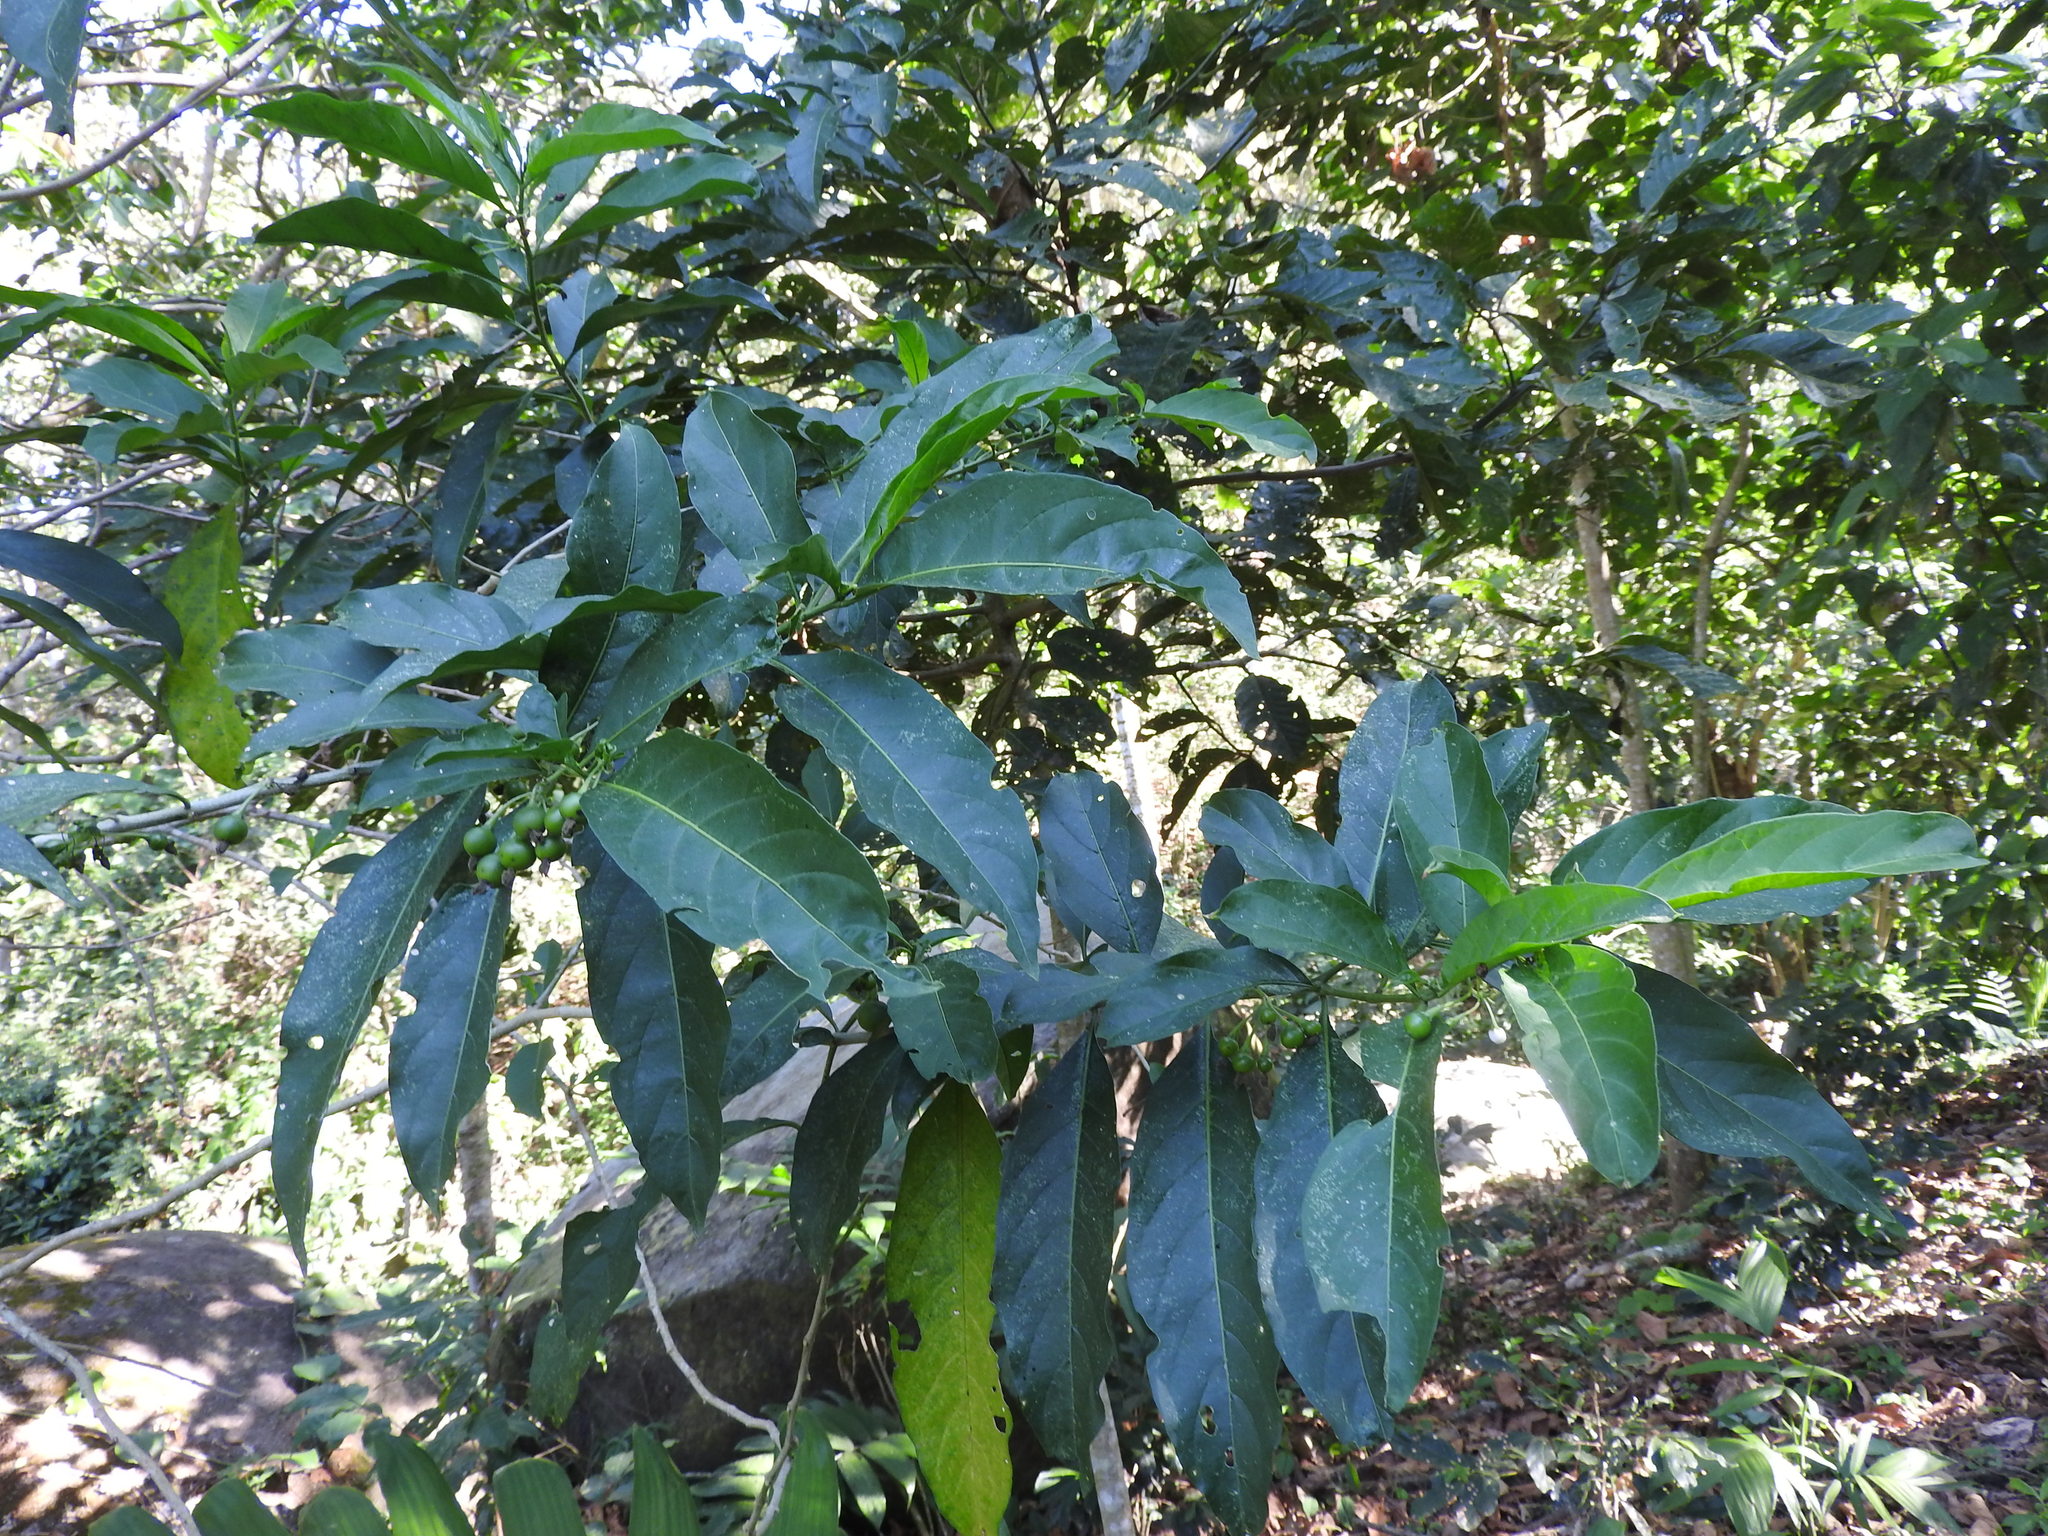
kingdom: Plantae
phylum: Tracheophyta
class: Magnoliopsida
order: Solanales
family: Solanaceae
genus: Solanum
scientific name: Solanum aphyodendron
